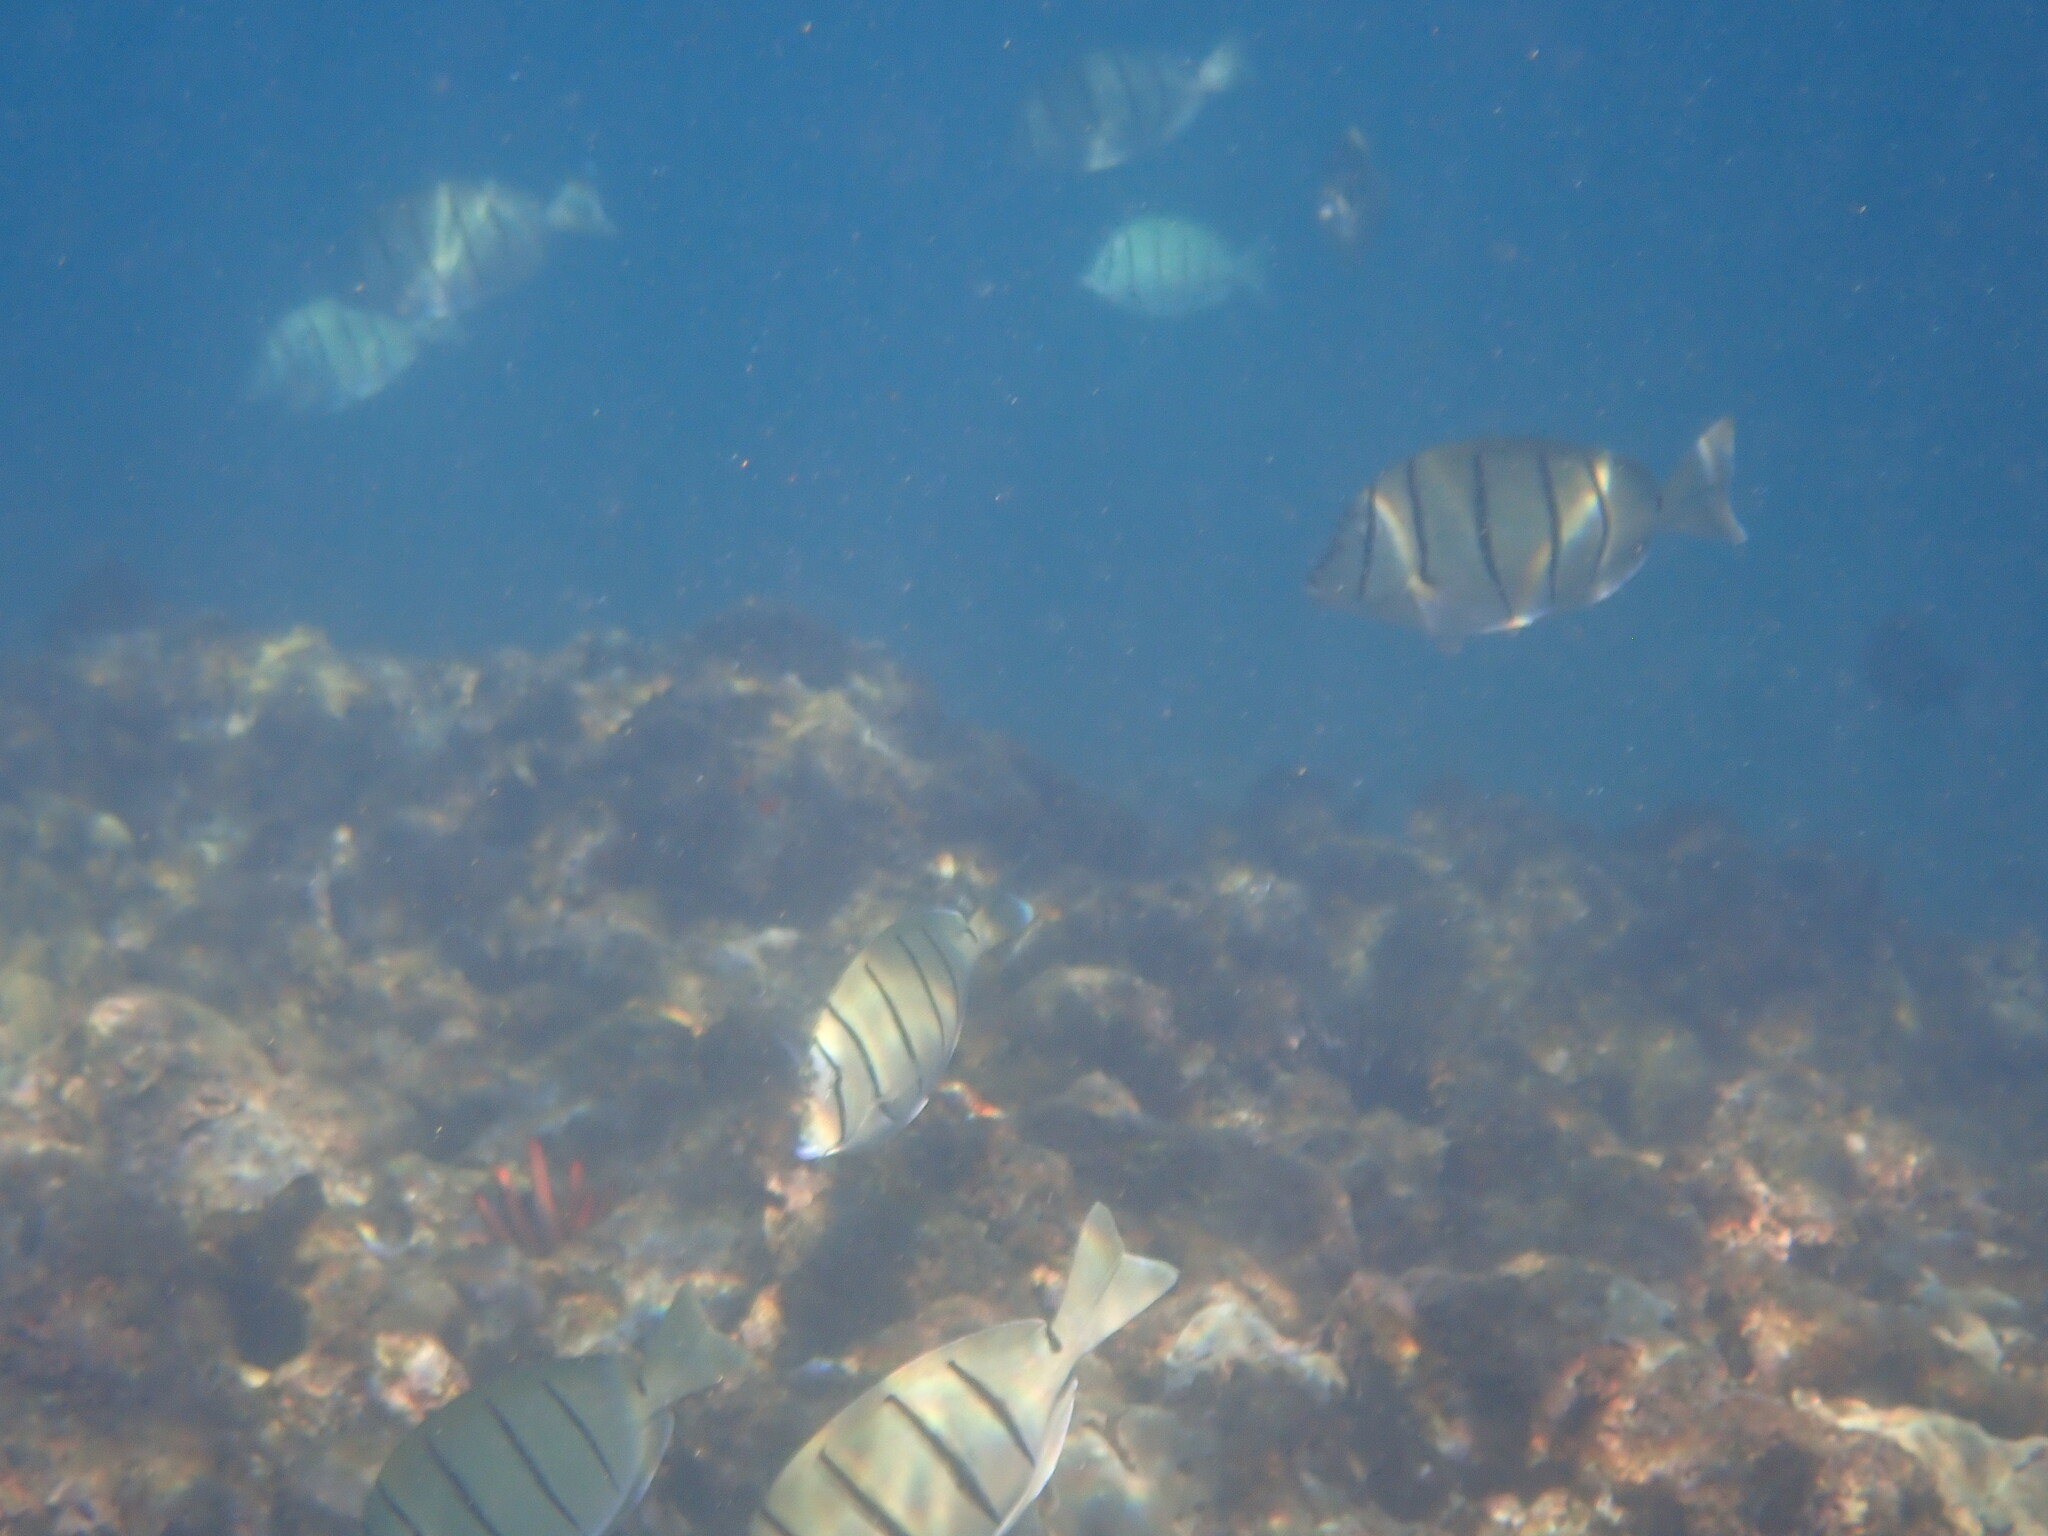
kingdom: Animalia
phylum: Chordata
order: Perciformes
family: Acanthuridae
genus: Acanthurus
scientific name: Acanthurus triostegus
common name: Convict surgeonfish
